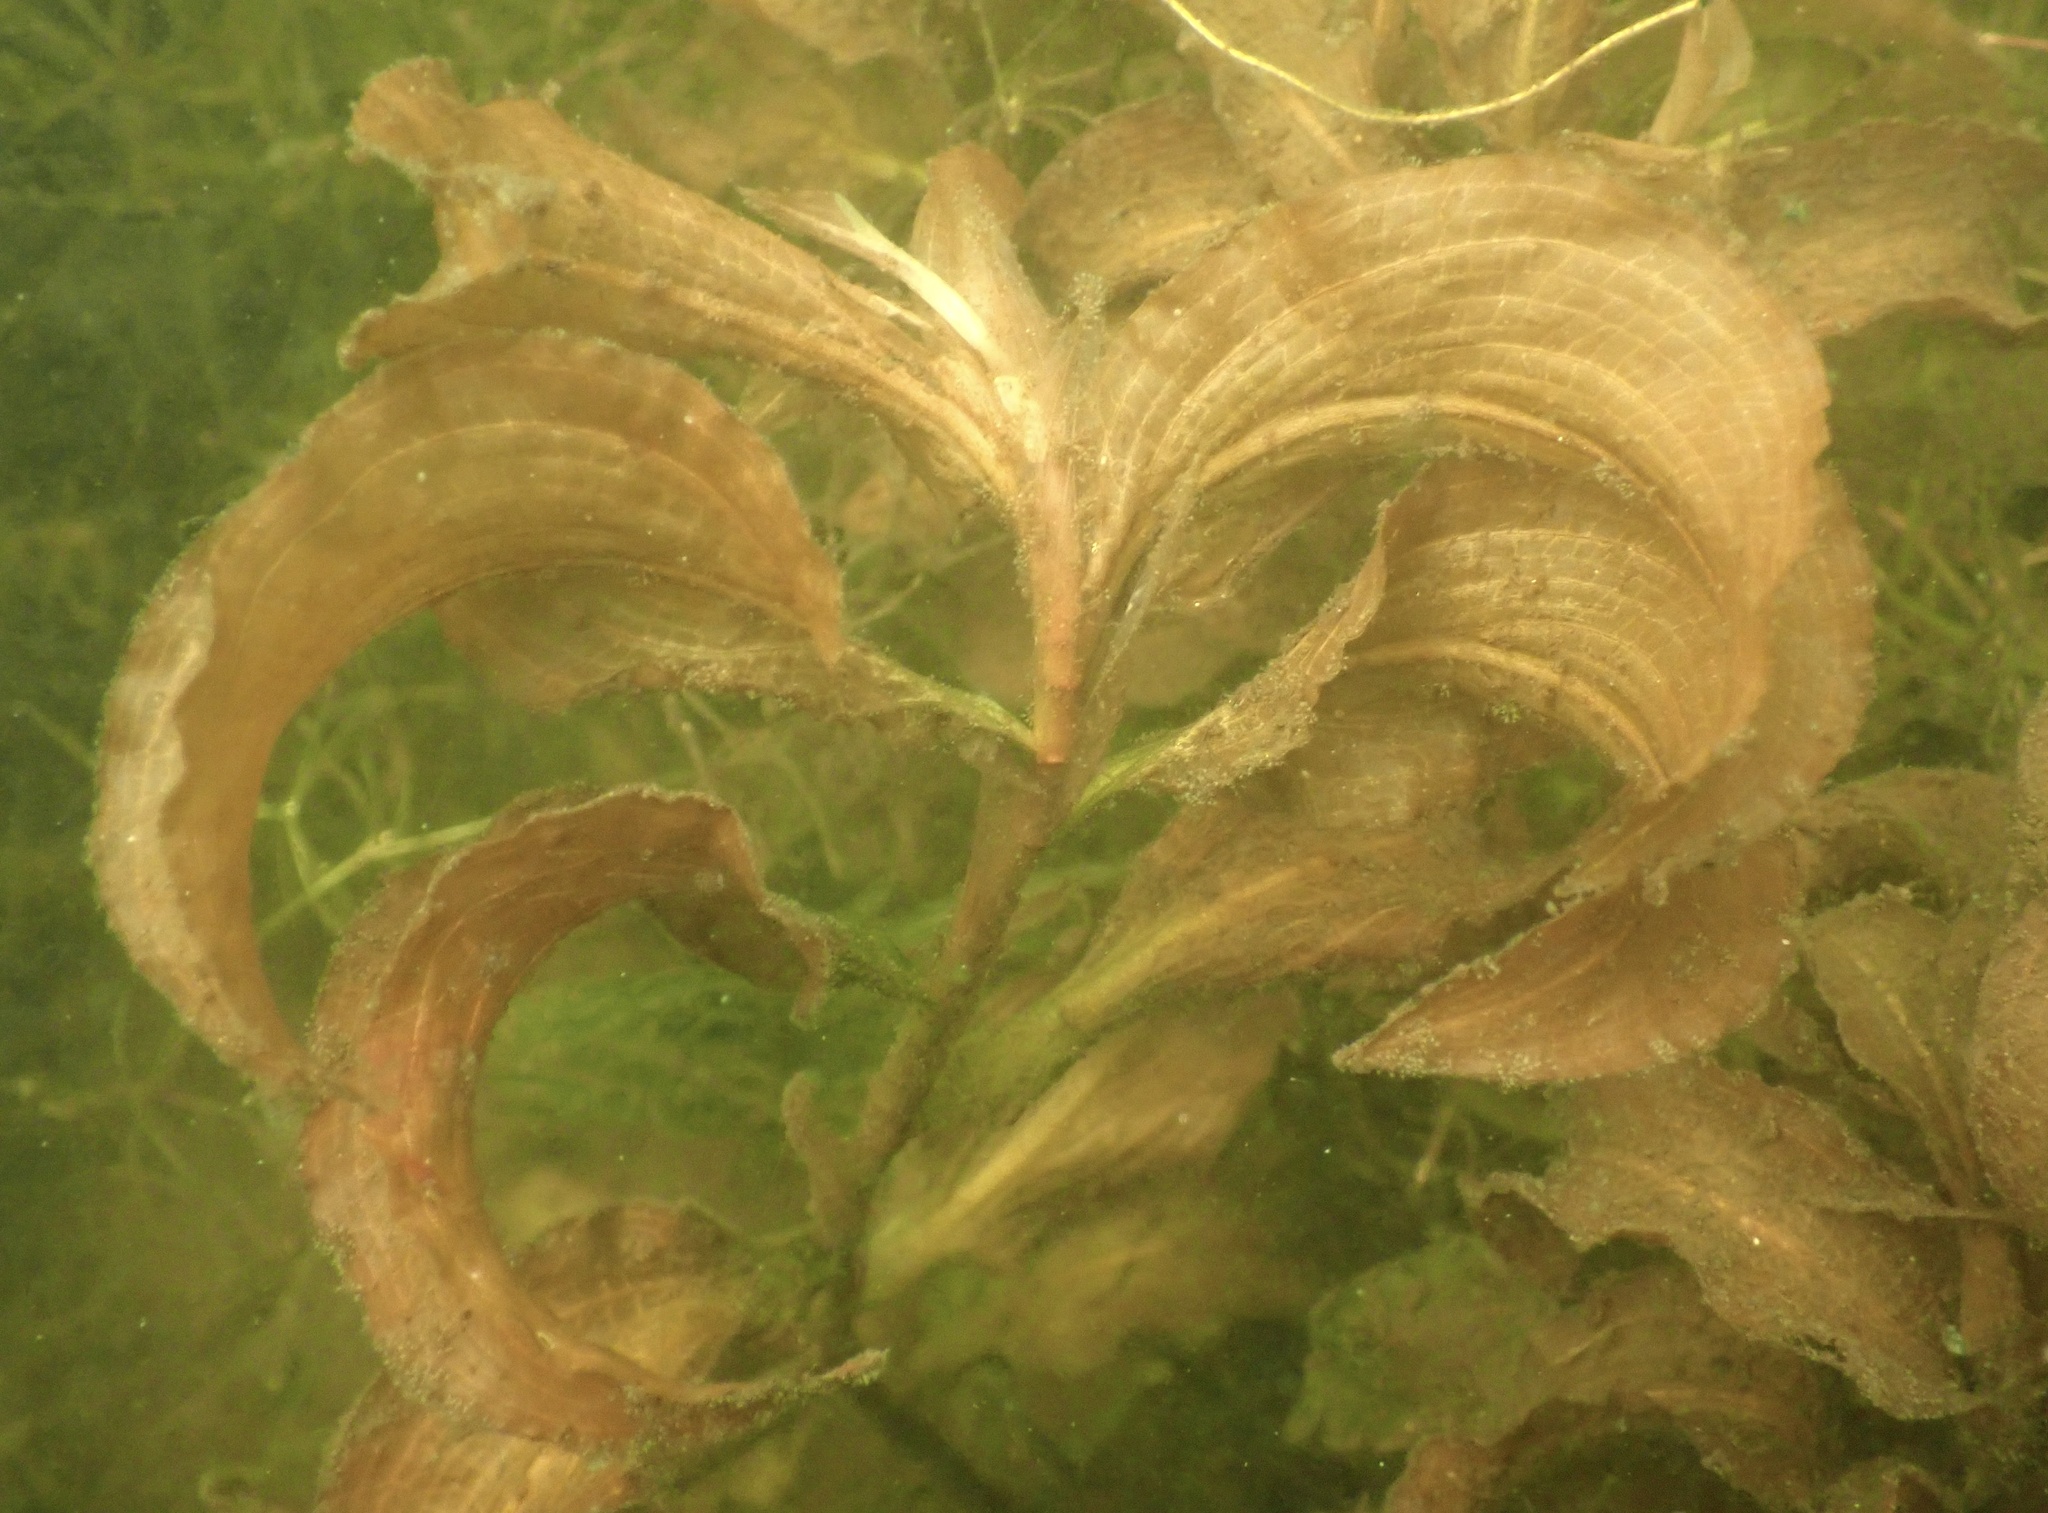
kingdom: Plantae
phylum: Tracheophyta
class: Liliopsida
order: Alismatales
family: Potamogetonaceae
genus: Potamogeton
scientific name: Potamogeton amplifolius
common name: Broad-leaved pondweed
